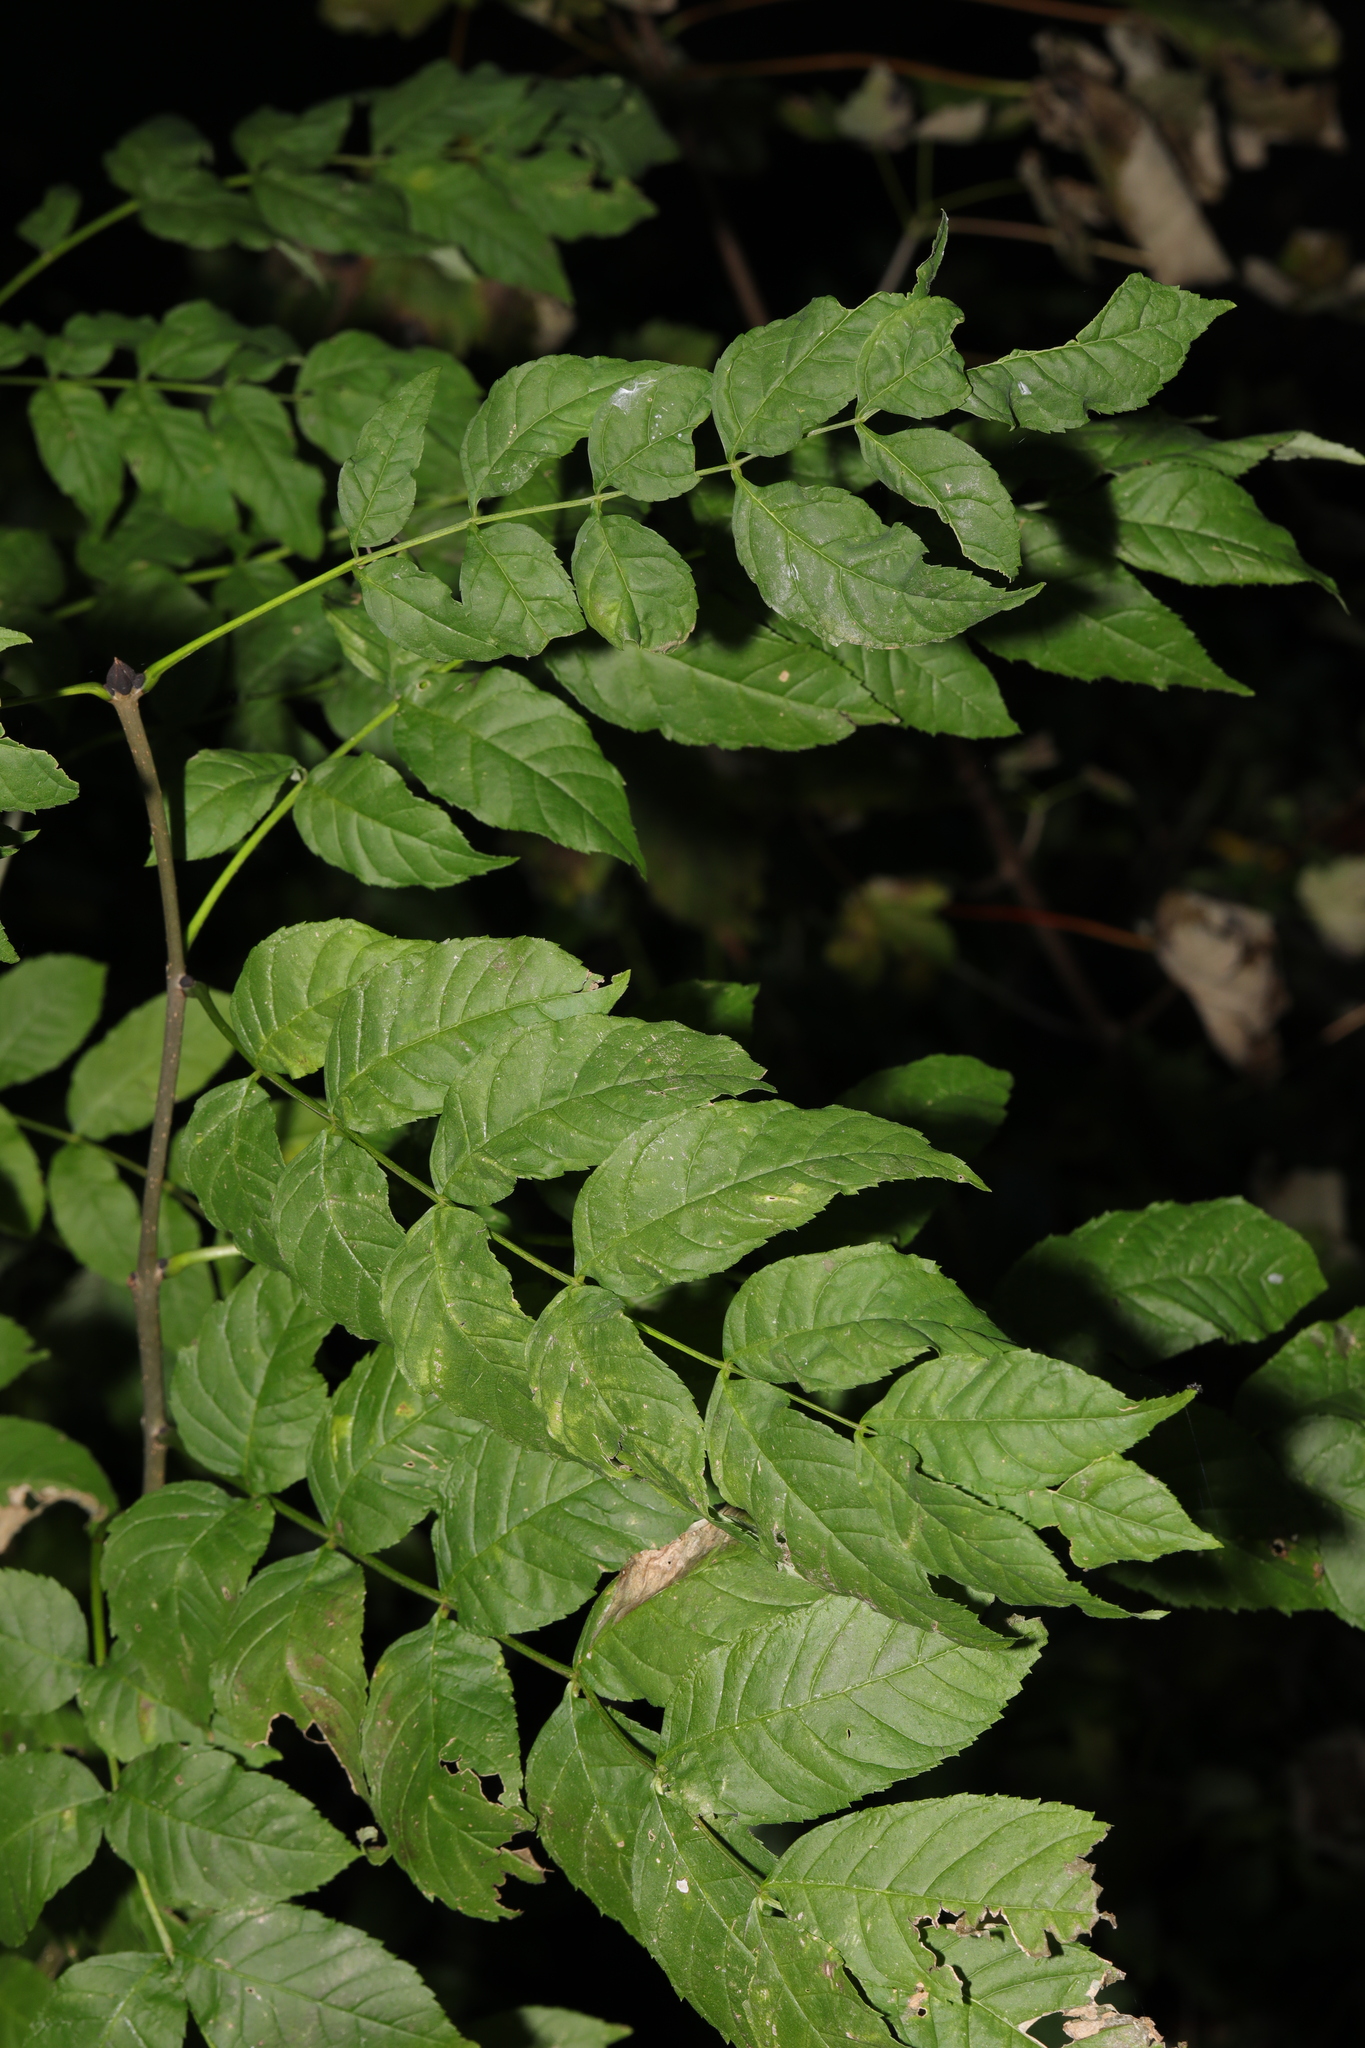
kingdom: Plantae
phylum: Tracheophyta
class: Magnoliopsida
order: Lamiales
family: Oleaceae
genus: Fraxinus
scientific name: Fraxinus excelsior
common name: European ash
